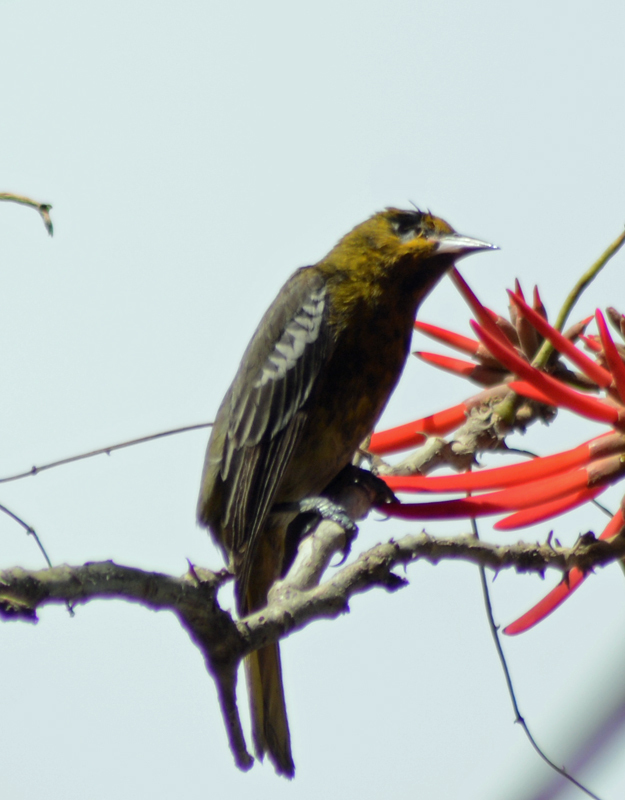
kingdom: Animalia
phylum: Chordata
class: Aves
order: Passeriformes
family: Icteridae
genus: Icterus
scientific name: Icterus abeillei
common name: Black-backed oriole
